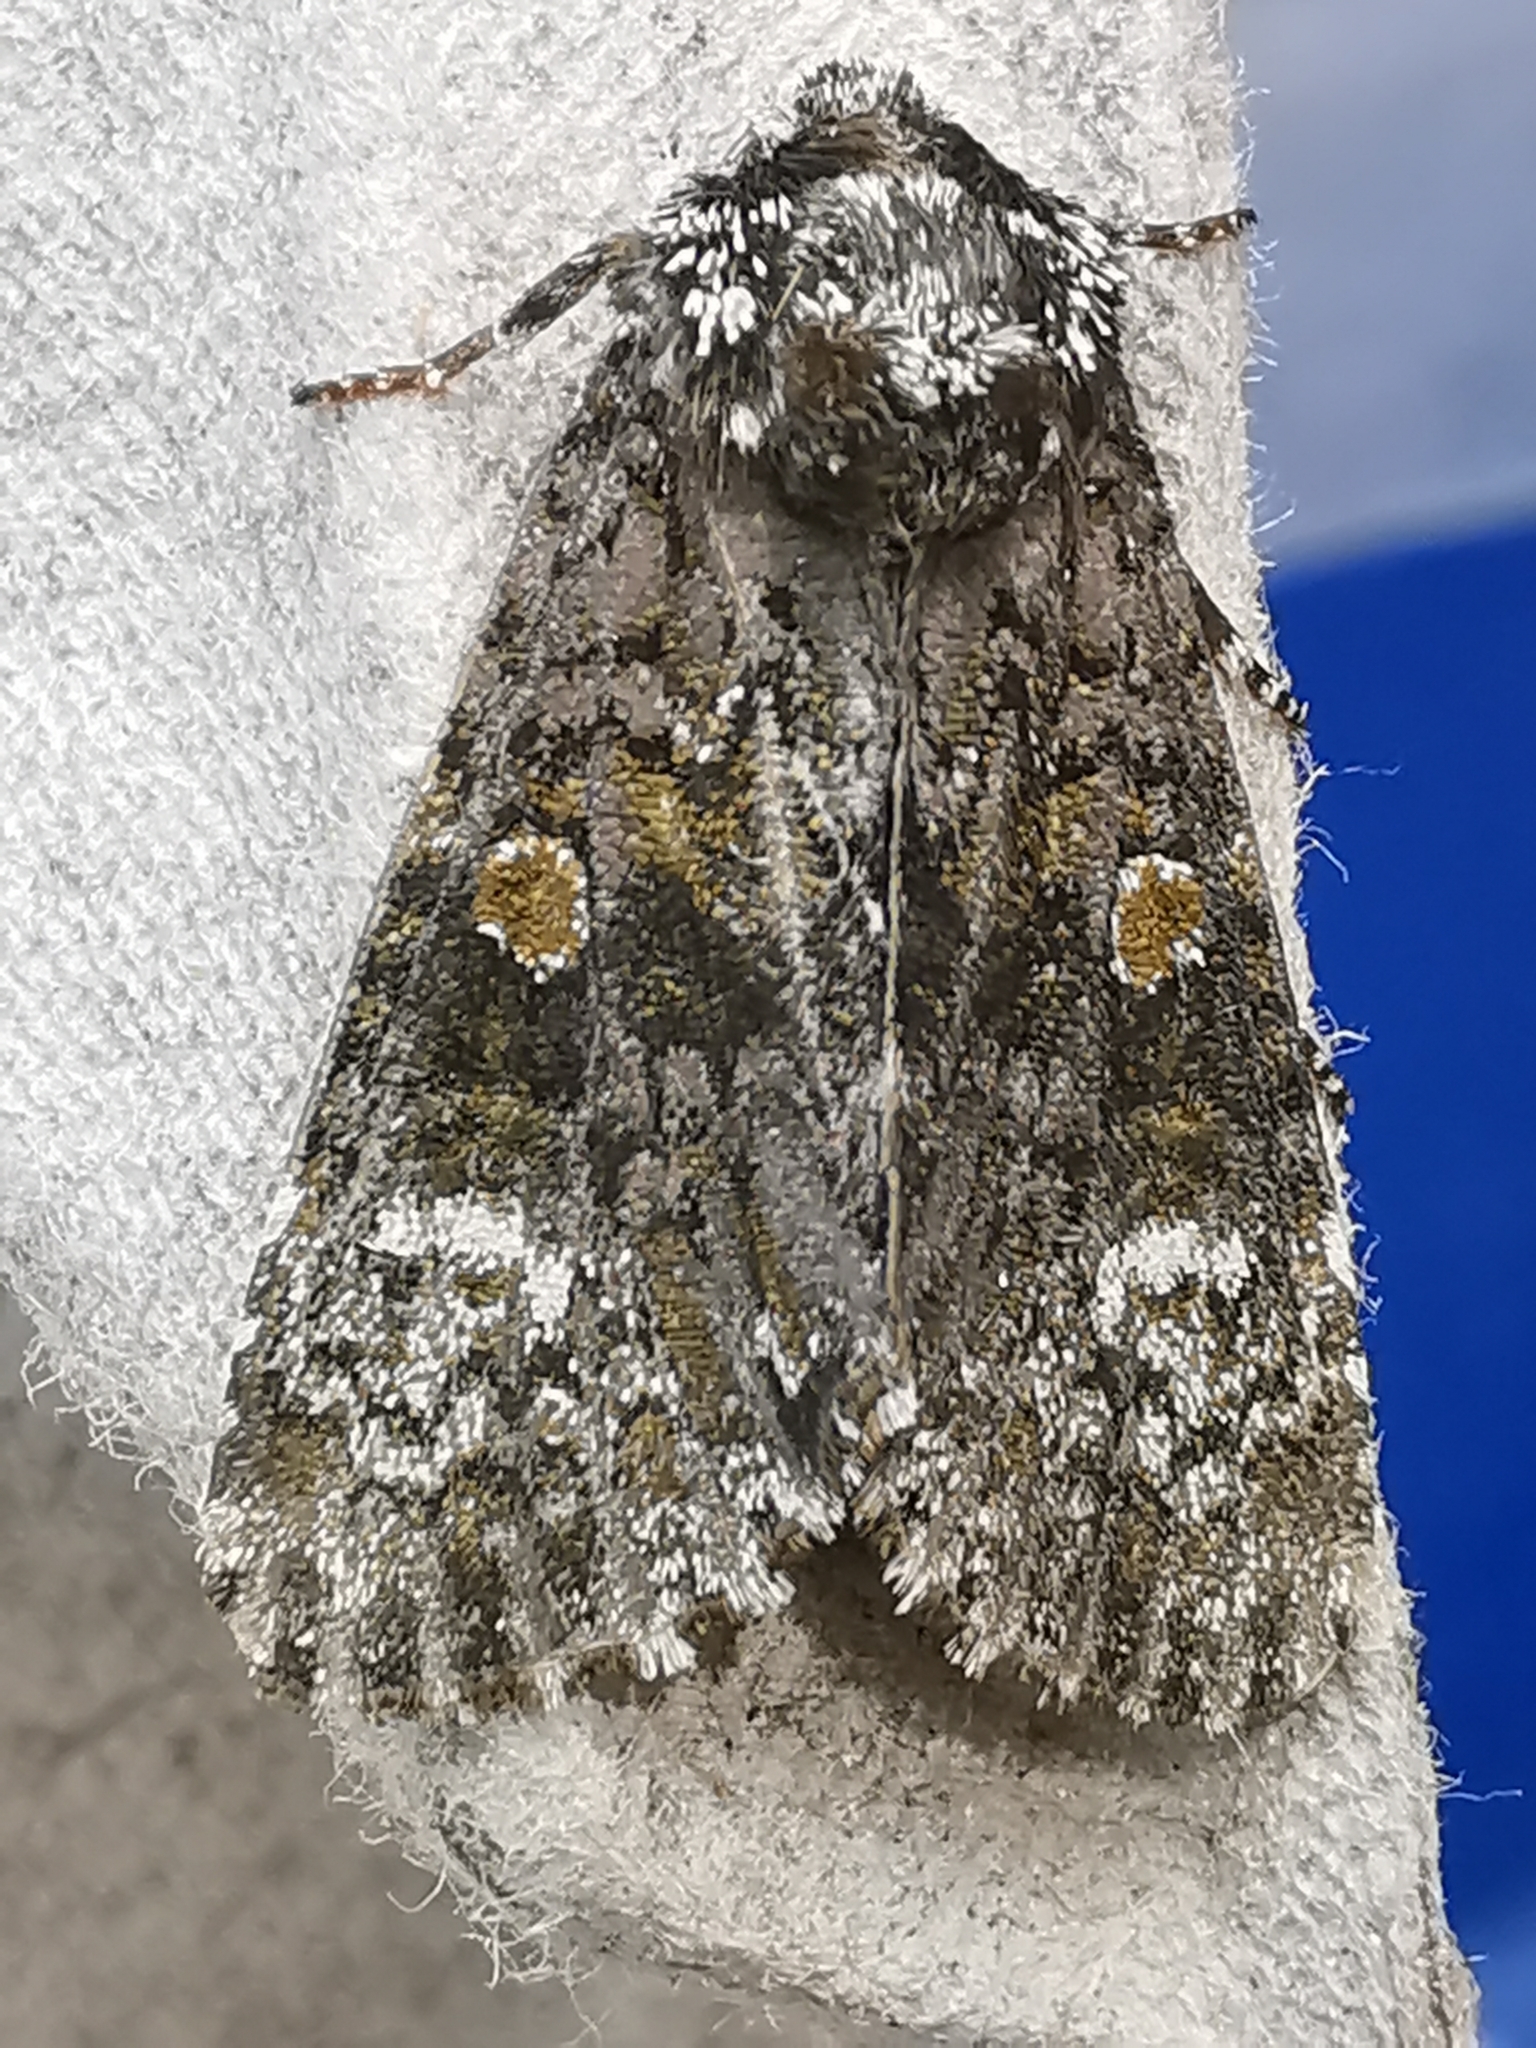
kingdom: Animalia
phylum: Arthropoda
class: Insecta
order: Lepidoptera
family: Noctuidae
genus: Craniophora
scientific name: Craniophora ligustri
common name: Coronet
